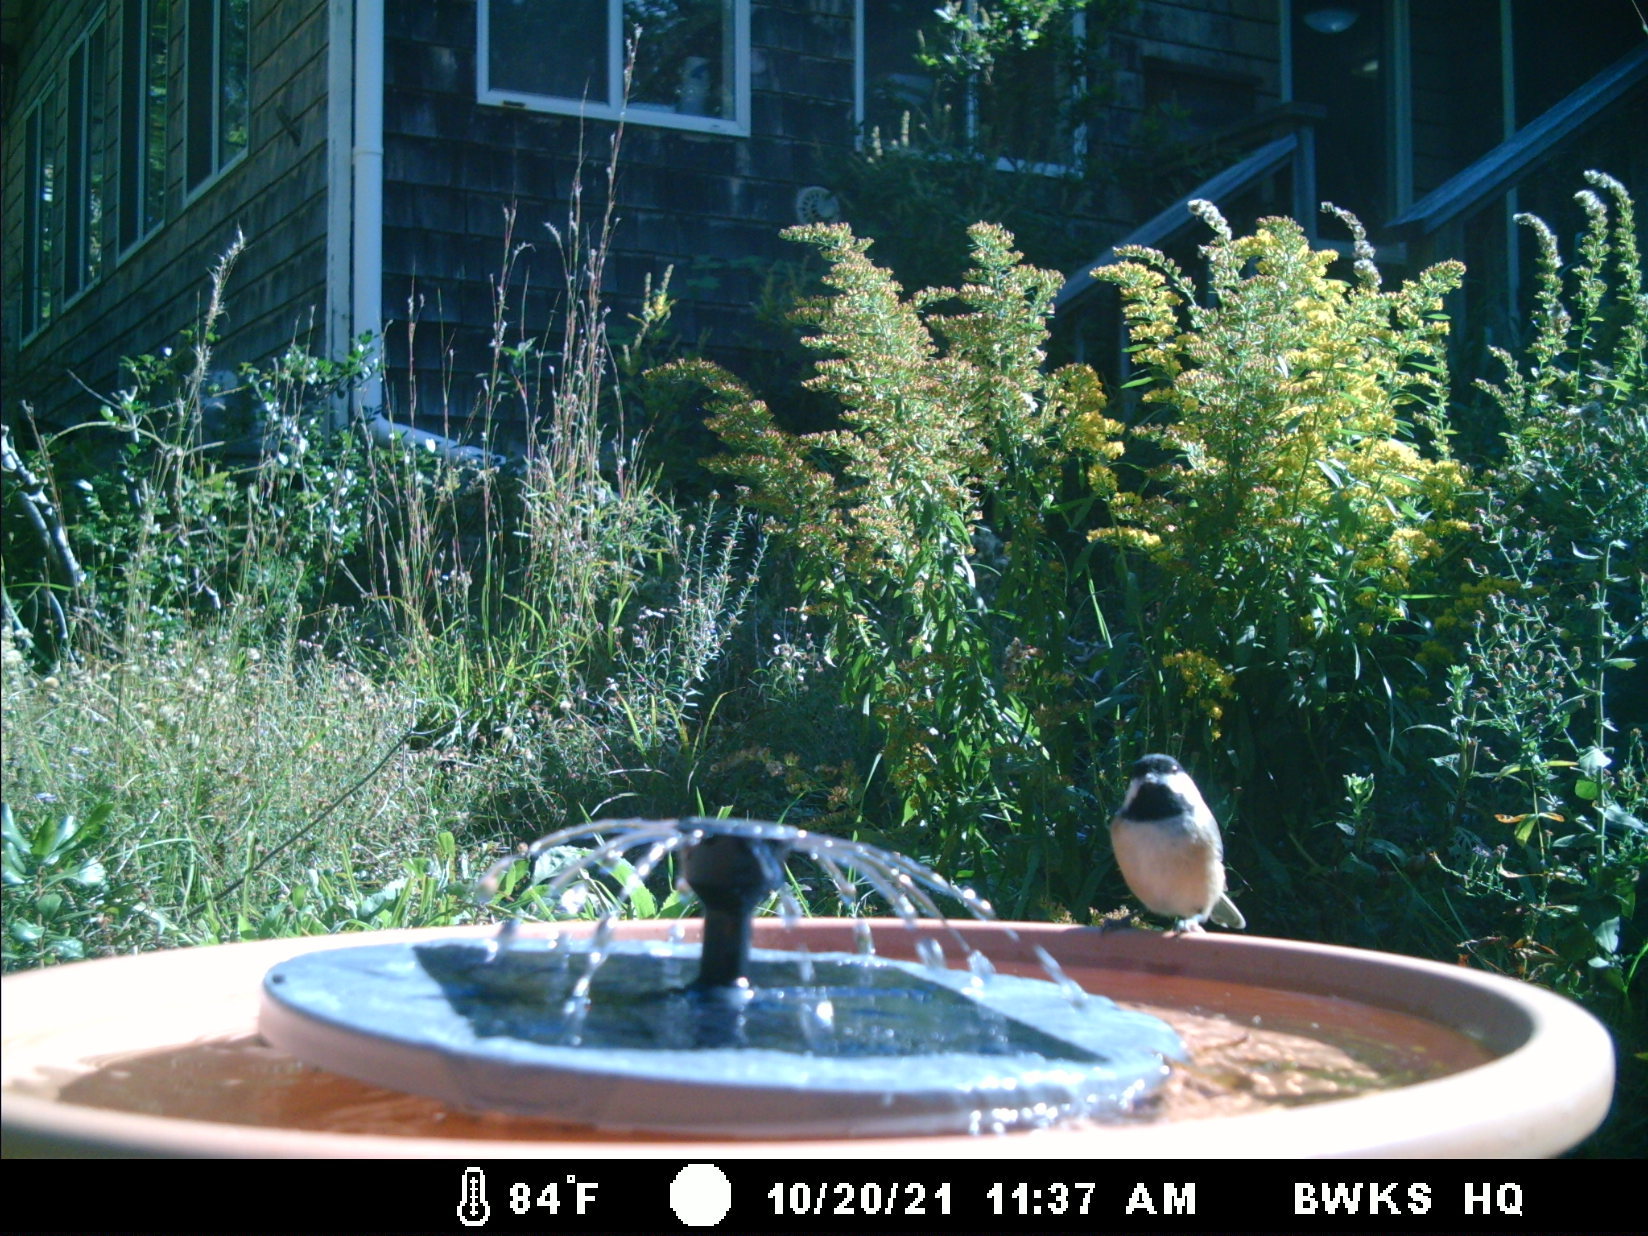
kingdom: Animalia
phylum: Chordata
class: Aves
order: Passeriformes
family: Paridae
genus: Poecile
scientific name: Poecile atricapillus
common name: Black-capped chickadee
